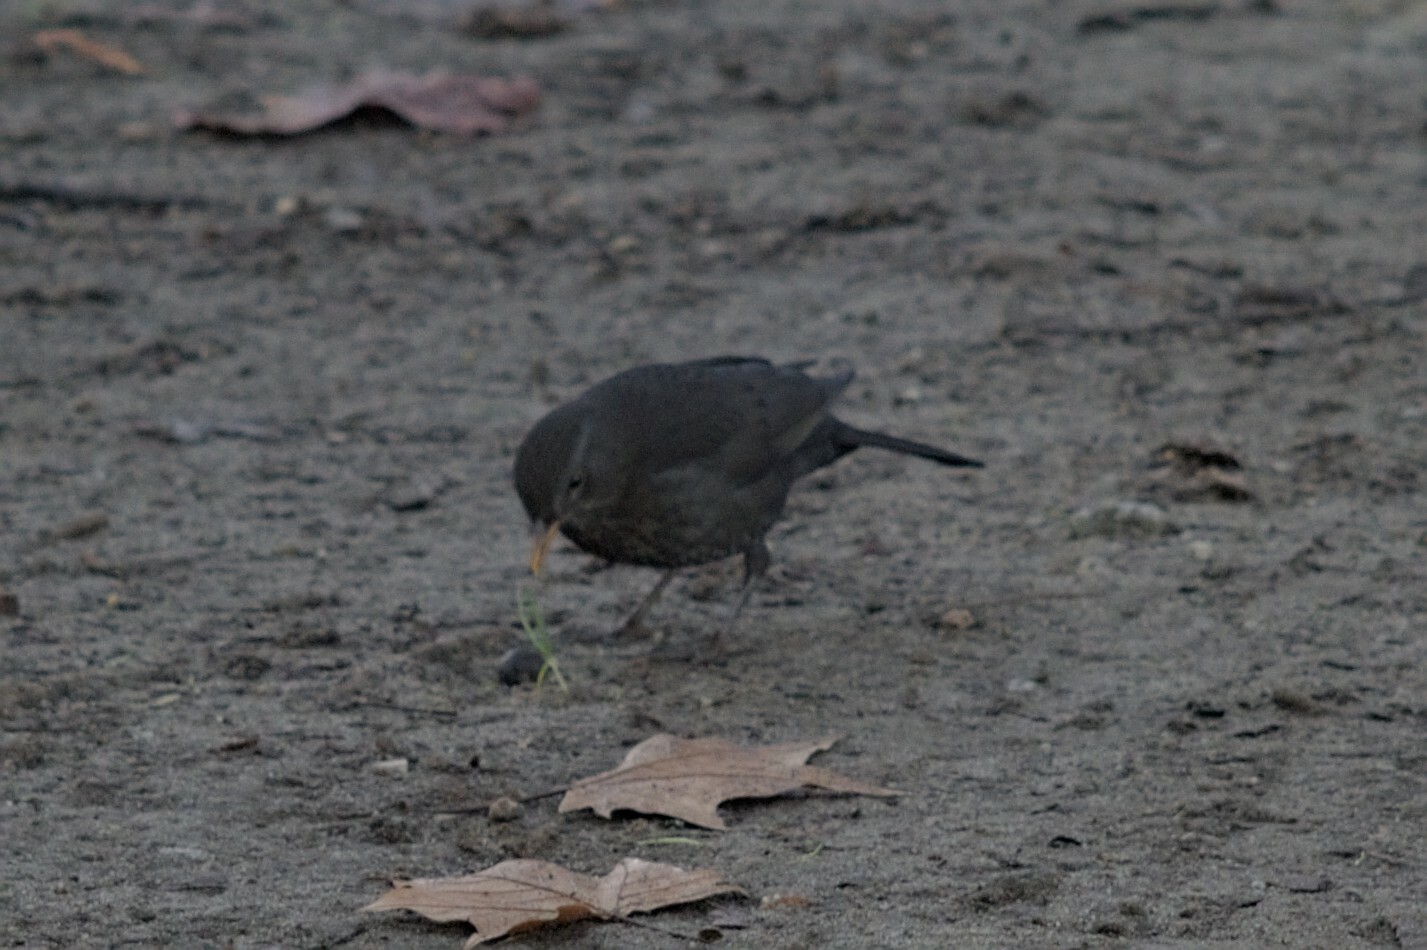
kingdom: Animalia
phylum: Chordata
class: Aves
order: Passeriformes
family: Turdidae
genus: Turdus
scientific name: Turdus merula
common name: Common blackbird
